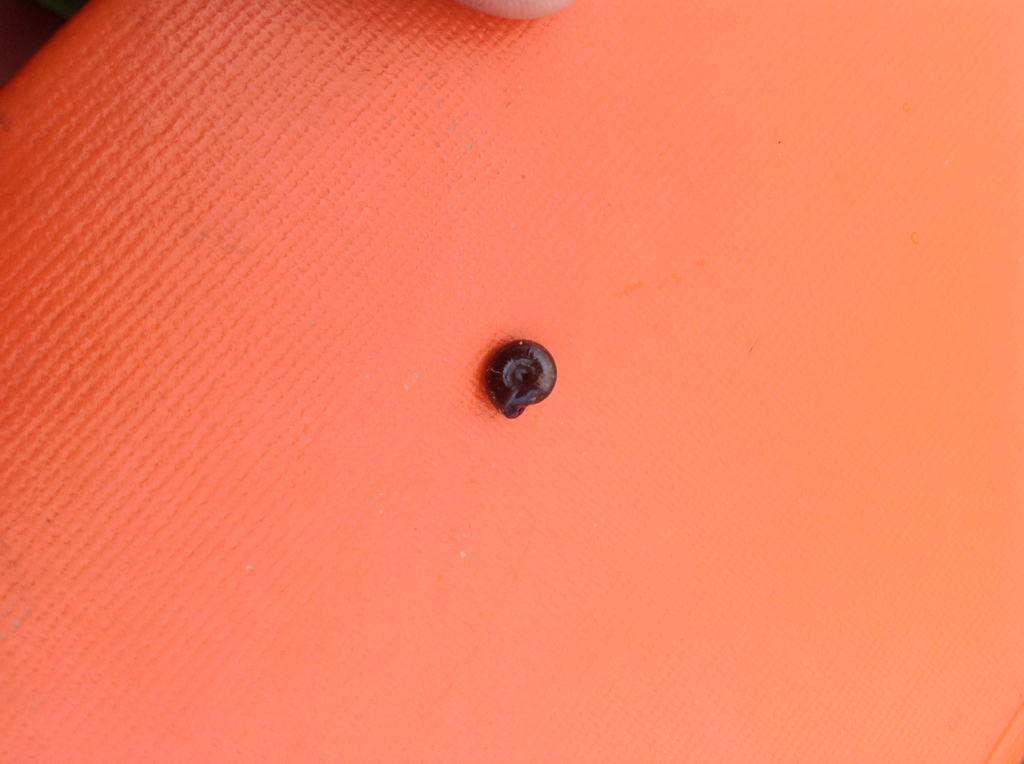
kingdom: Animalia
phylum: Mollusca
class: Gastropoda
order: Stylommatophora
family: Gastrodontidae
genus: Zonitoides
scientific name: Zonitoides nitidus
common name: Shiny glass snail
